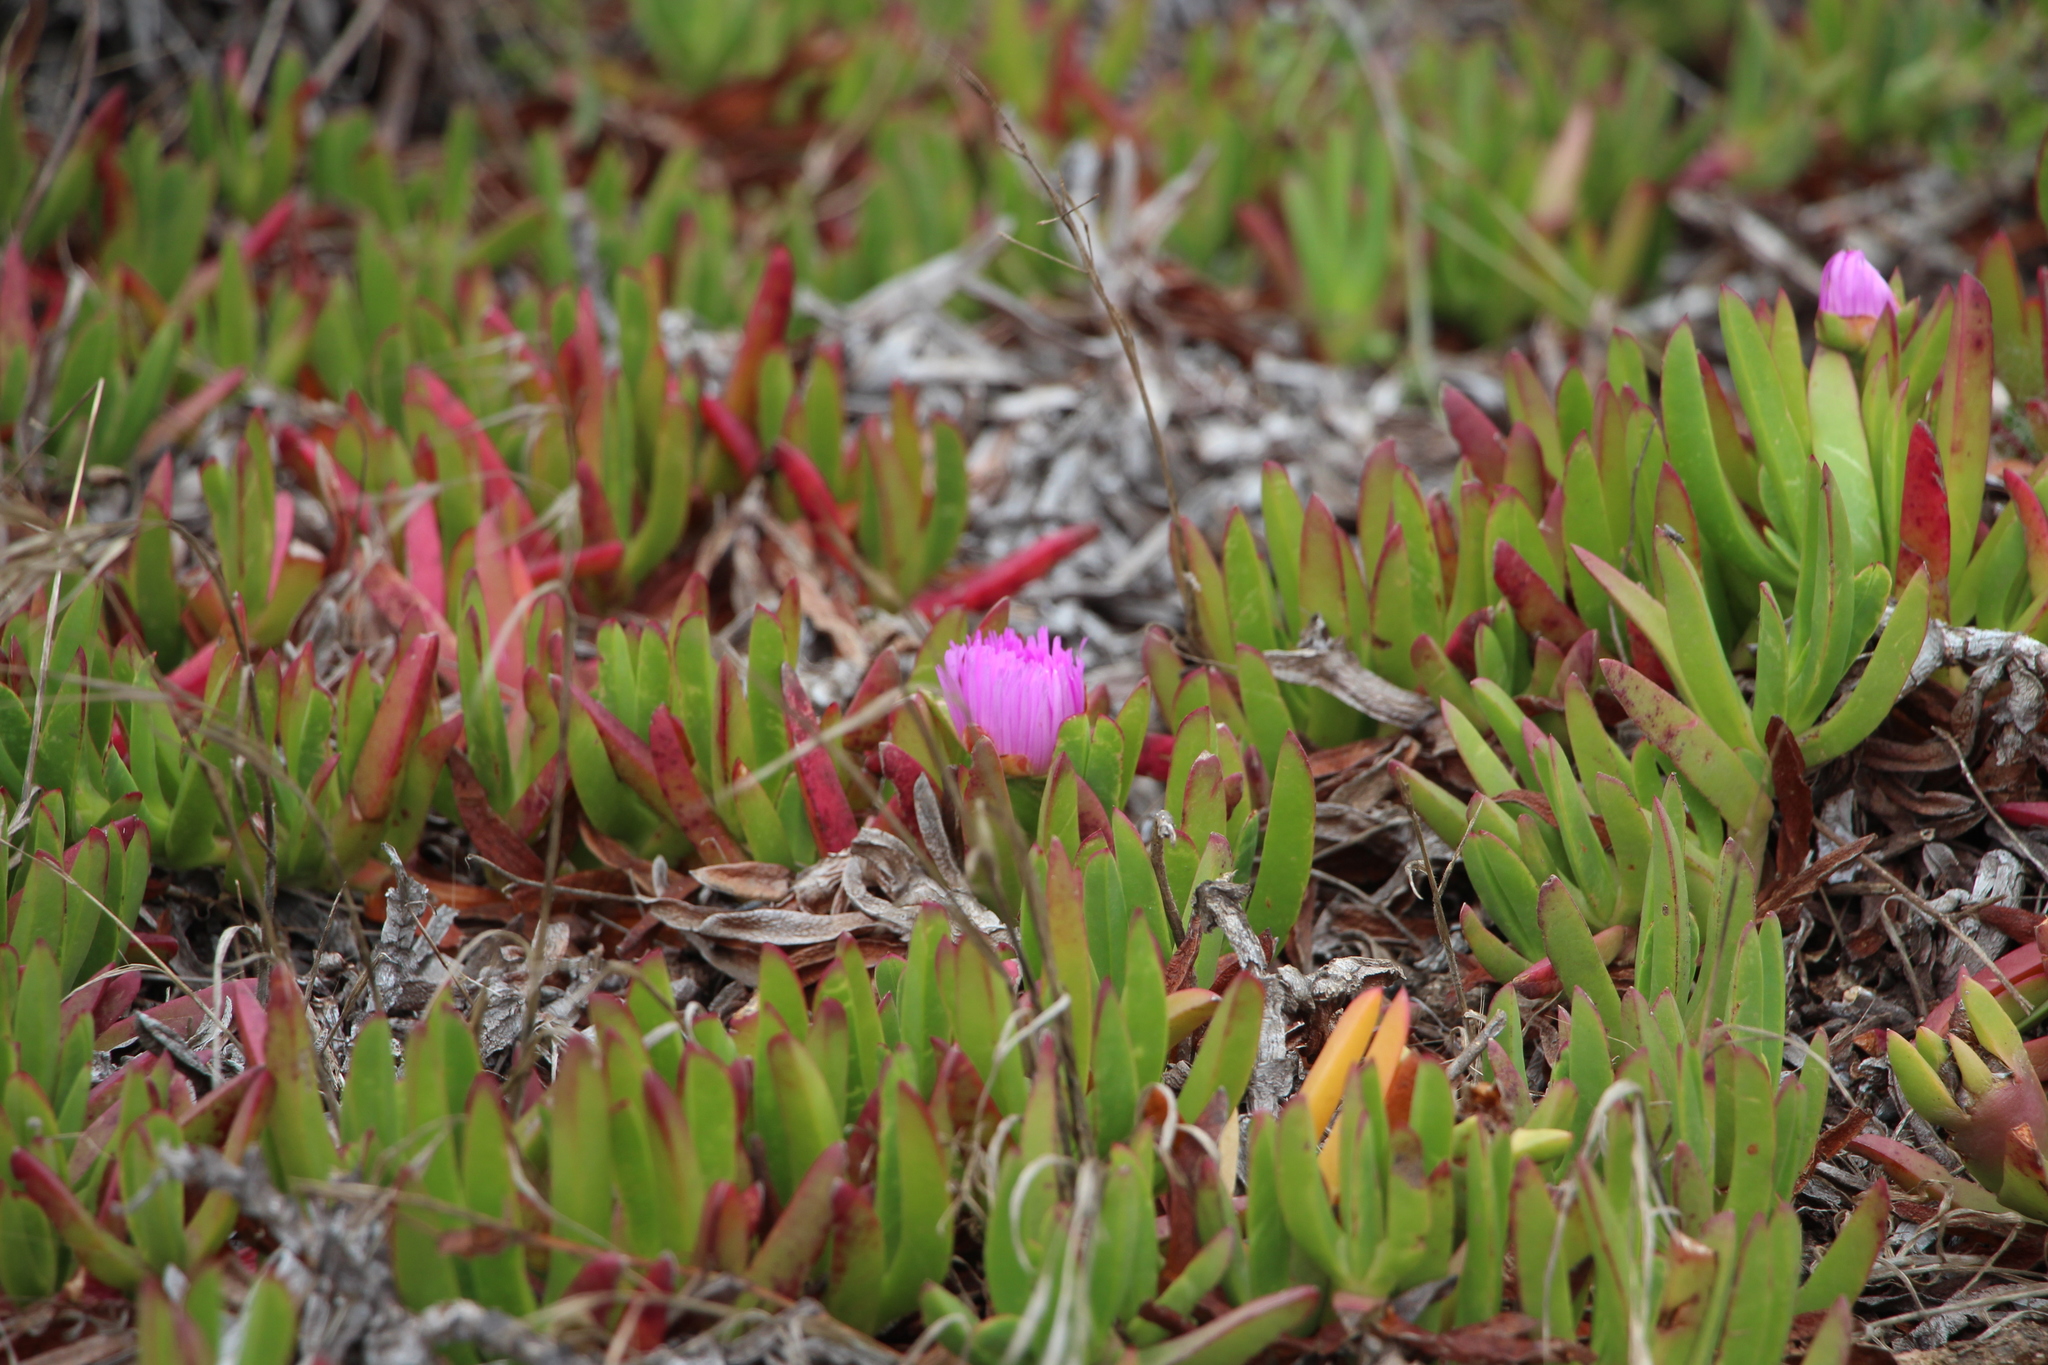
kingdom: Plantae
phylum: Tracheophyta
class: Magnoliopsida
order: Caryophyllales
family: Aizoaceae
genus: Carpobrotus
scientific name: Carpobrotus chilensis
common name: Sea fig
